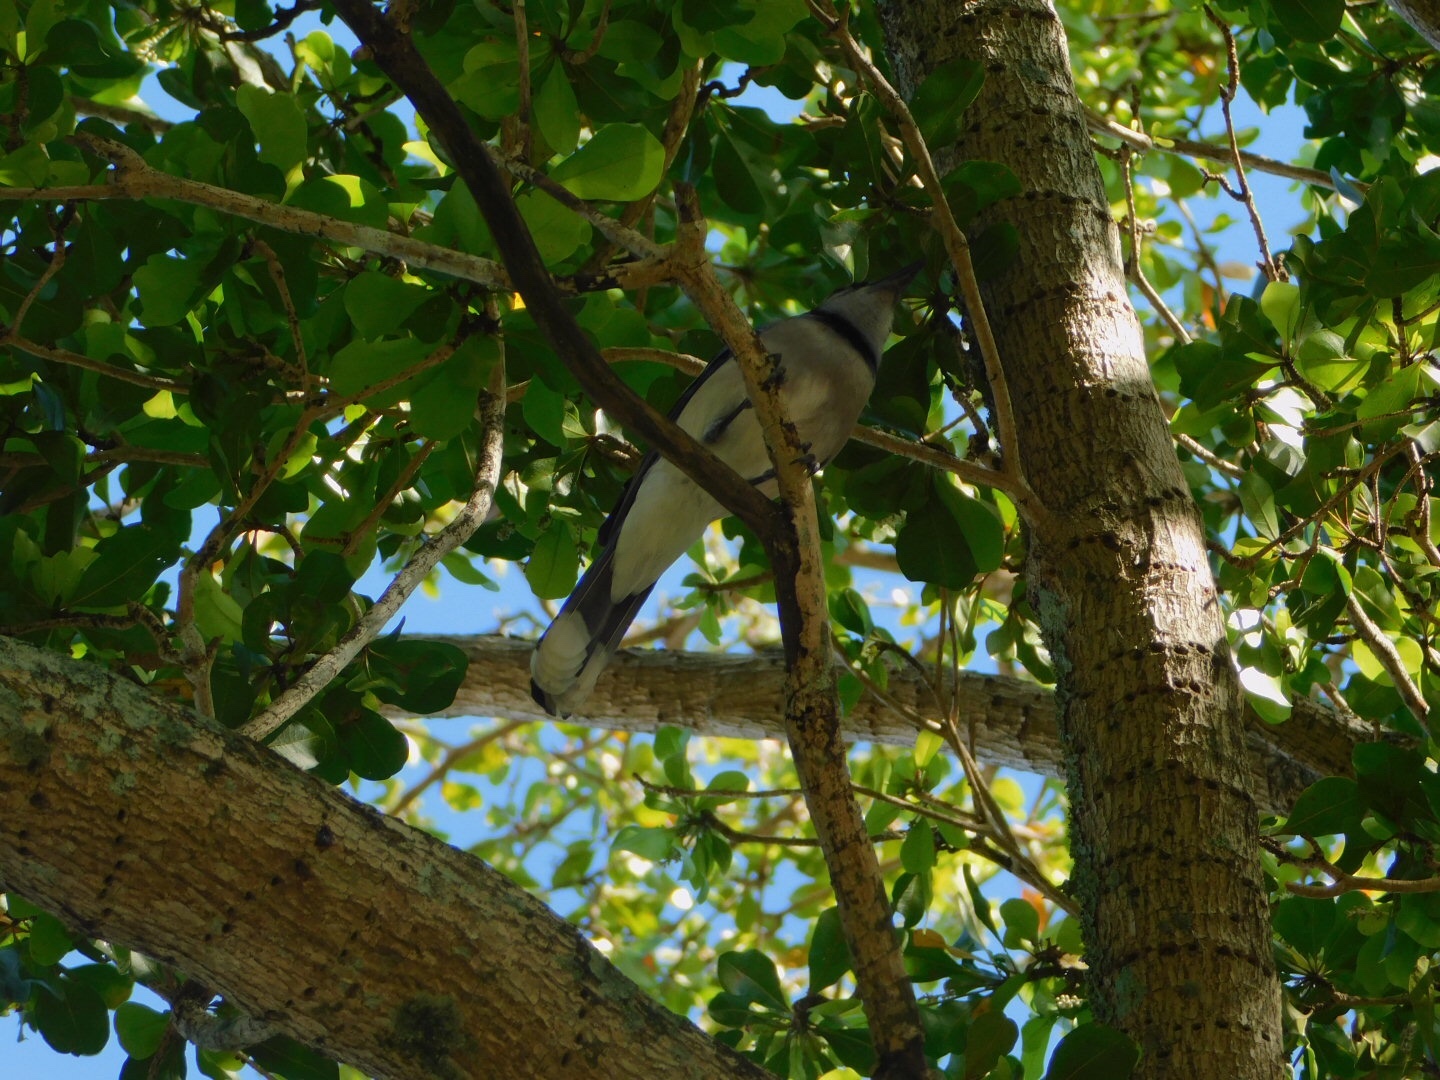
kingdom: Animalia
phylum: Chordata
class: Aves
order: Passeriformes
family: Corvidae
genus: Cyanocitta
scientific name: Cyanocitta cristata
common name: Blue jay
